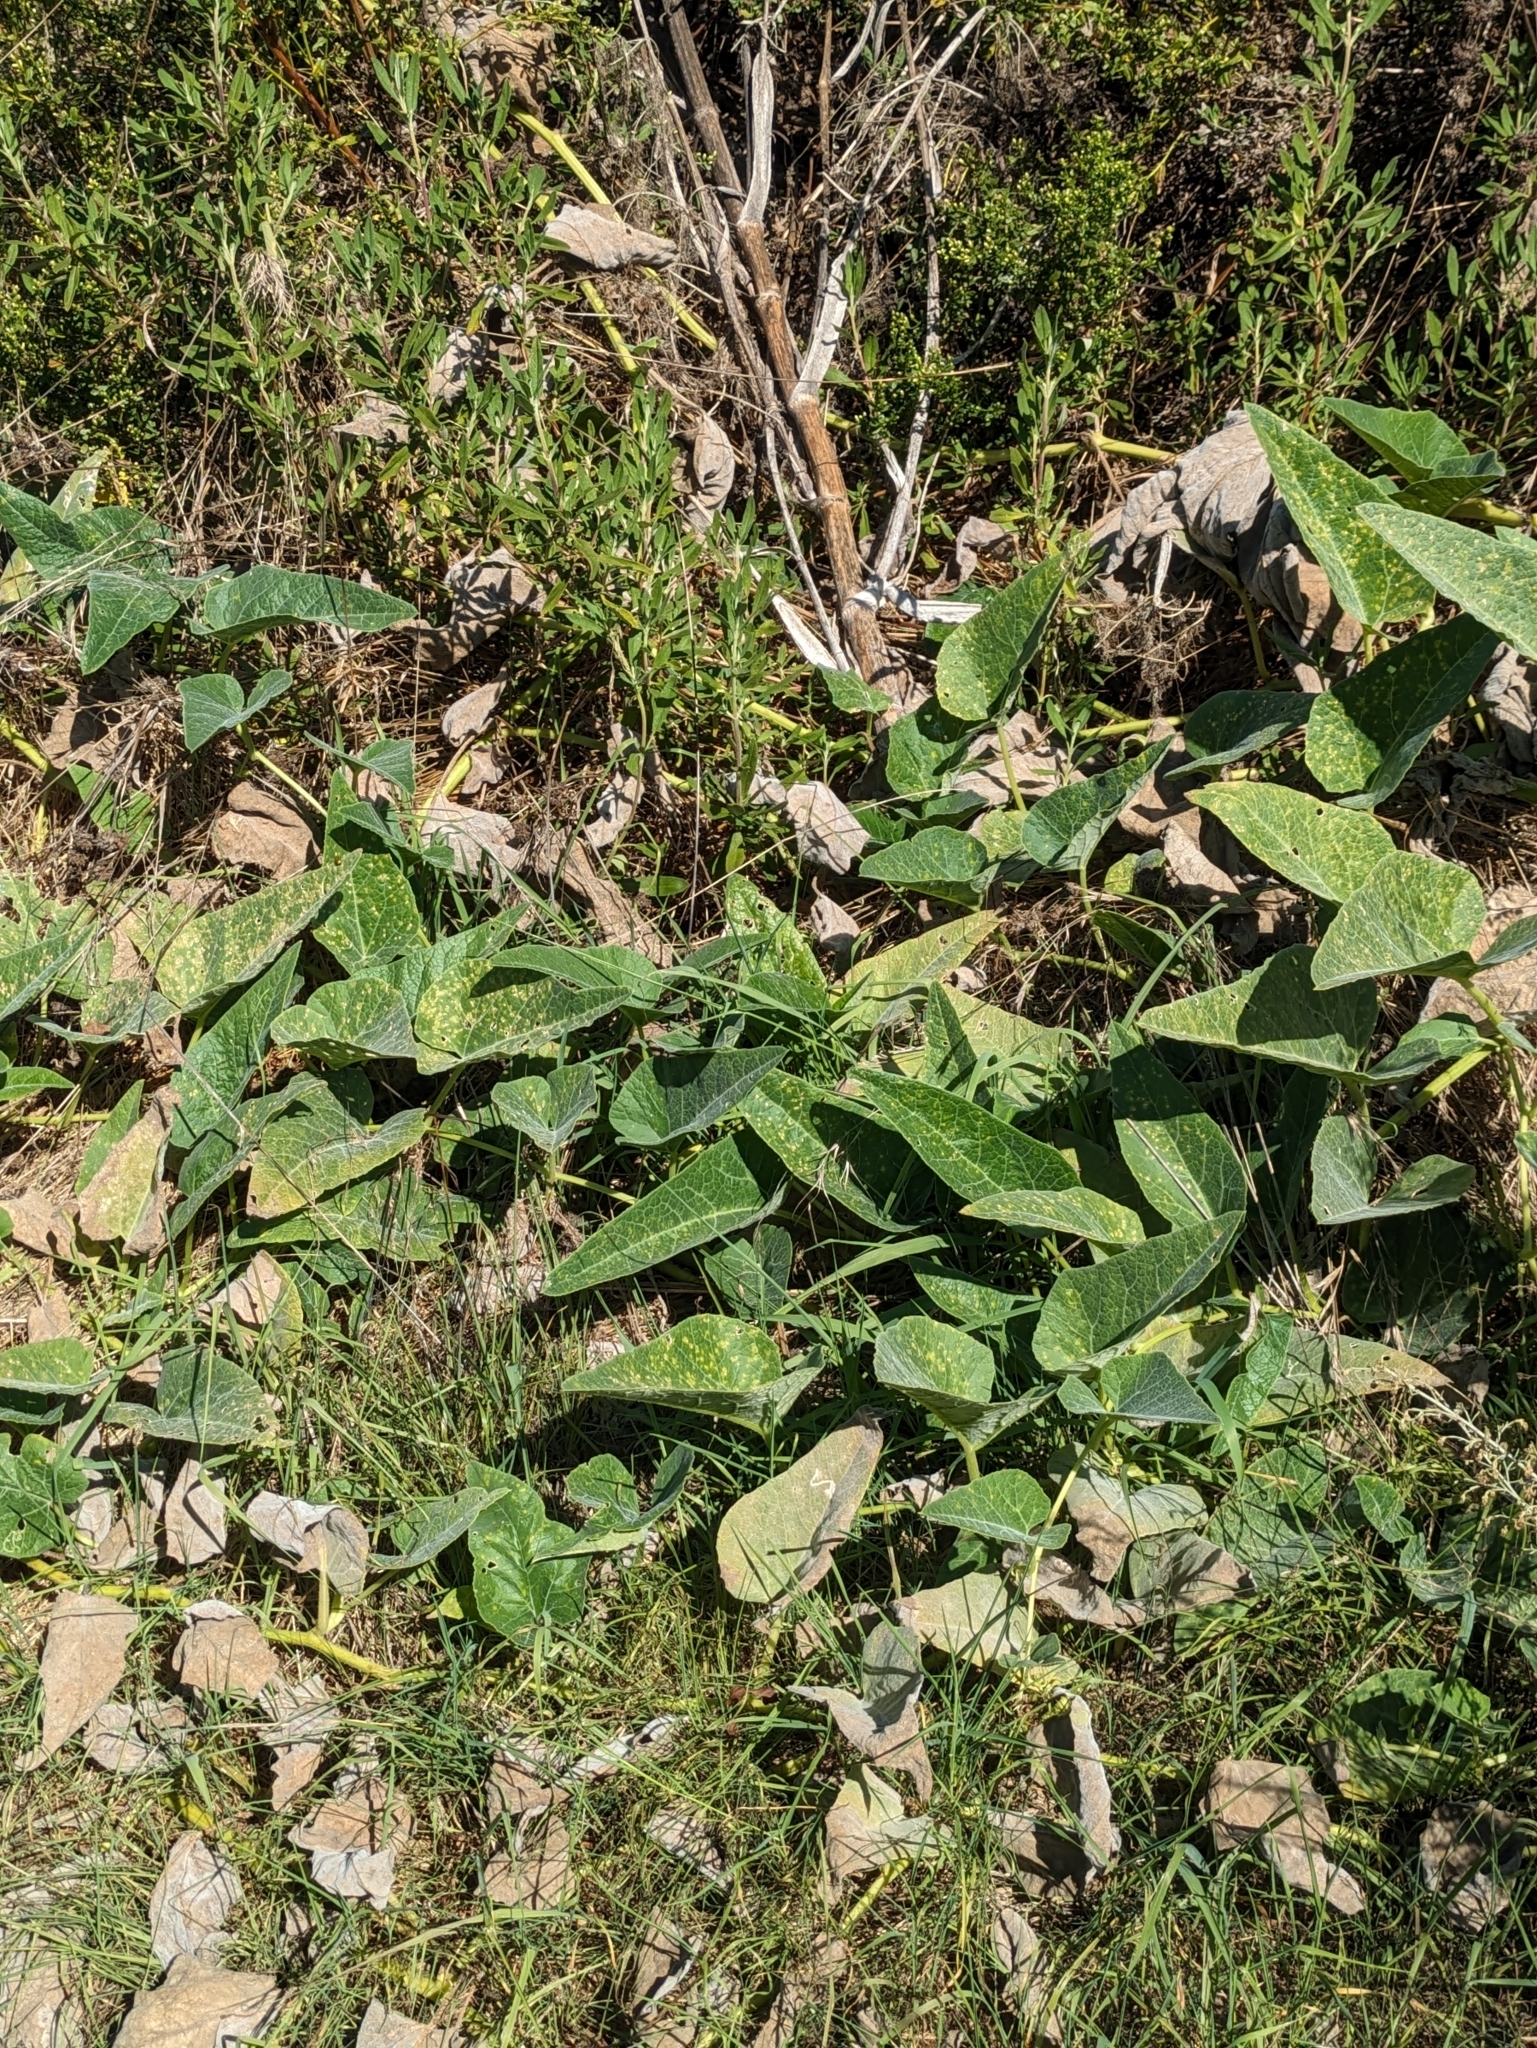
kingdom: Plantae
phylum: Tracheophyta
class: Magnoliopsida
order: Cucurbitales
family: Cucurbitaceae
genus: Cucurbita
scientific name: Cucurbita foetidissima
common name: Buffalo gourd
